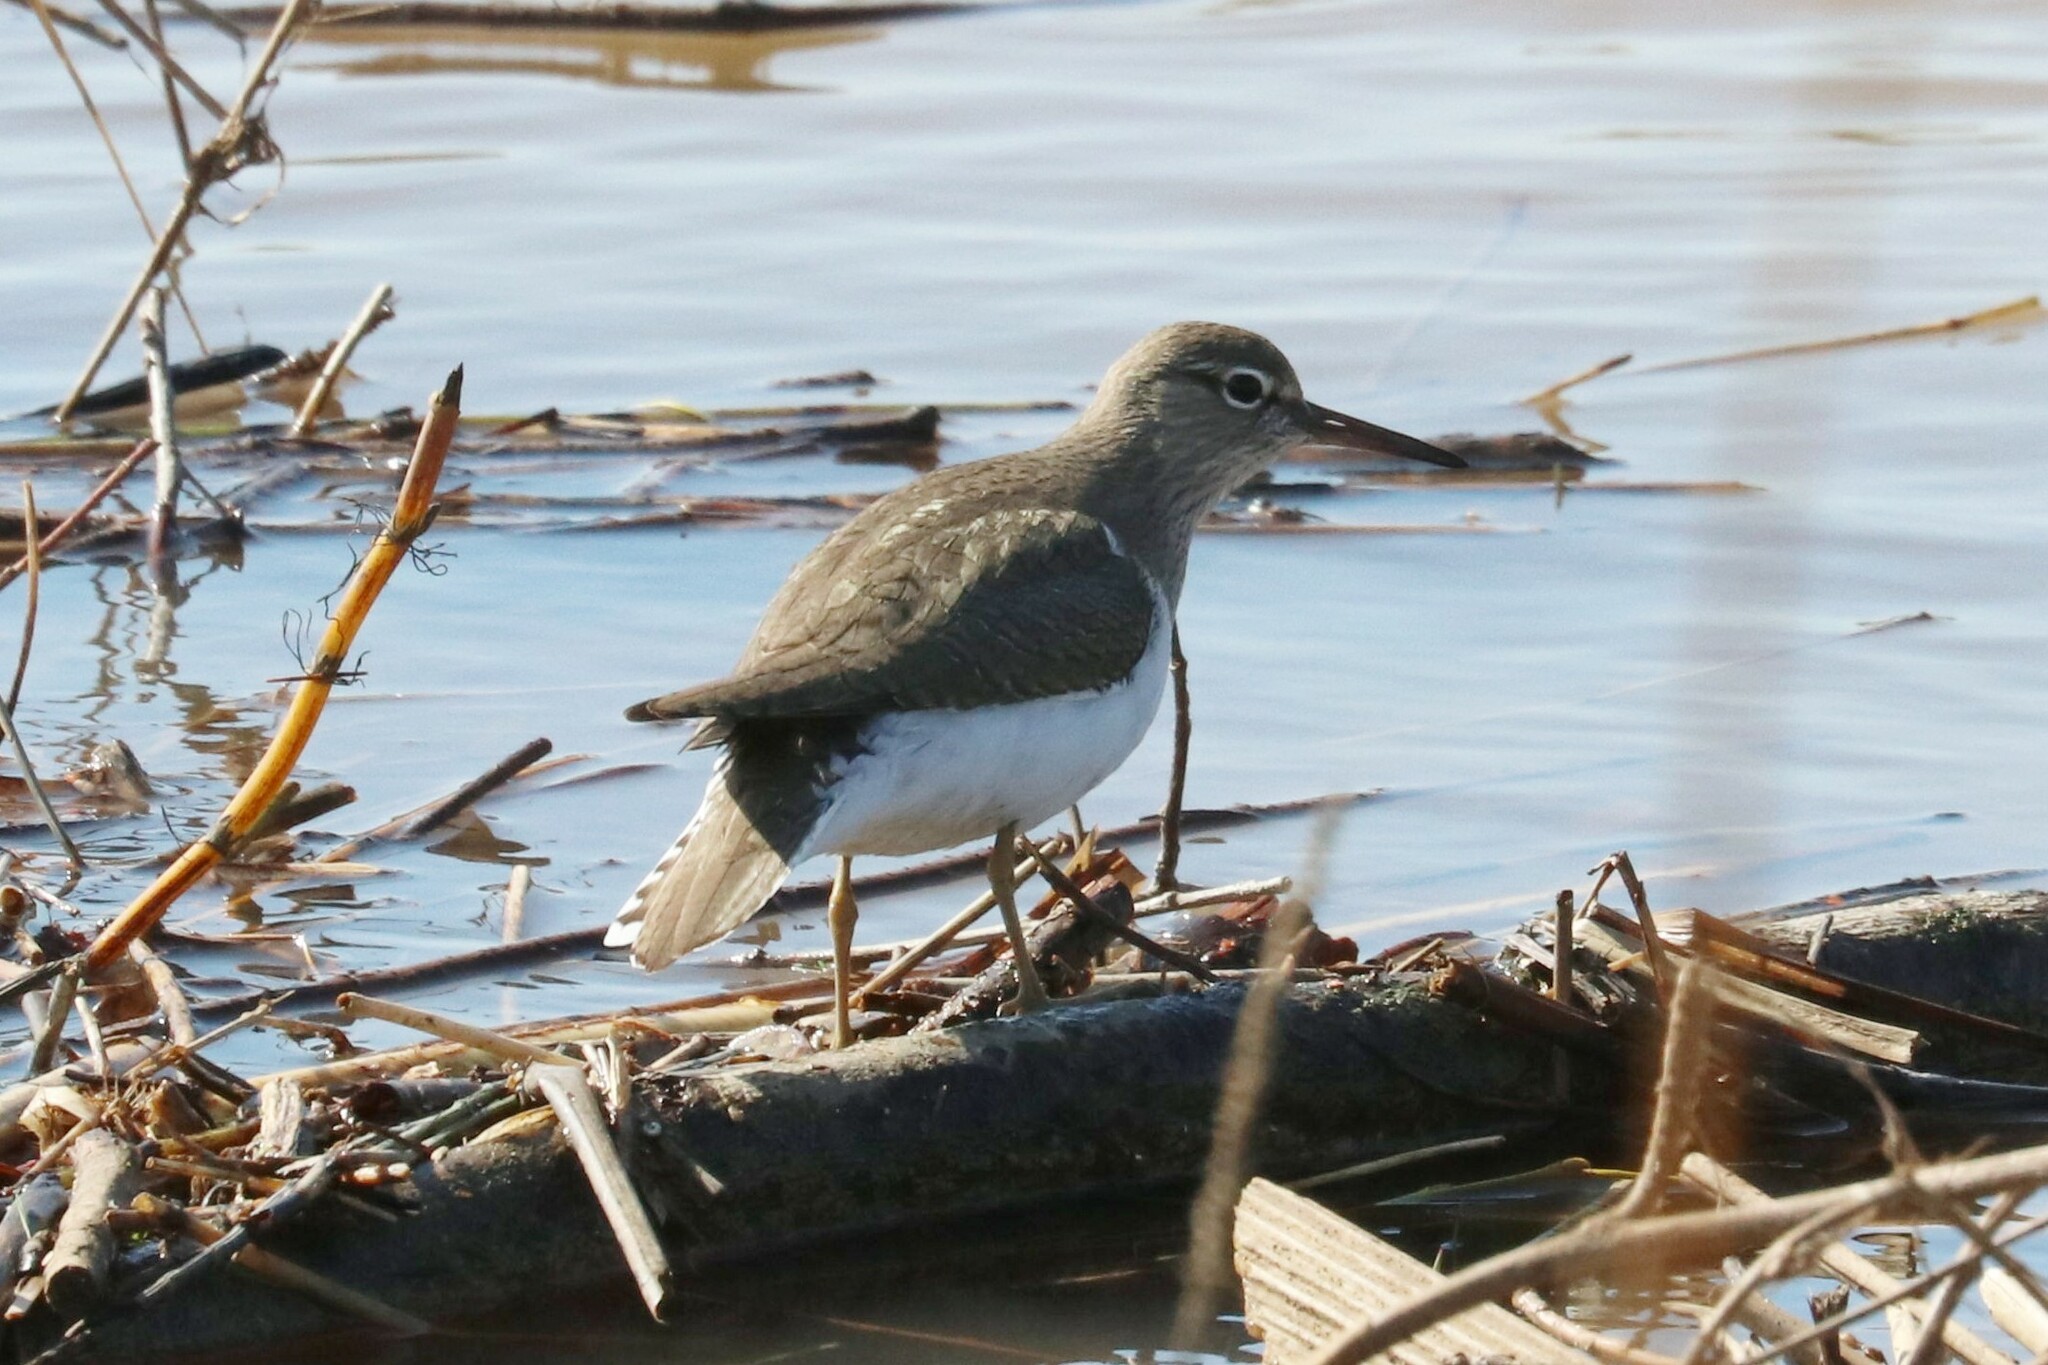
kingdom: Animalia
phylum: Chordata
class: Aves
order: Charadriiformes
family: Scolopacidae
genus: Actitis
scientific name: Actitis hypoleucos
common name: Common sandpiper
